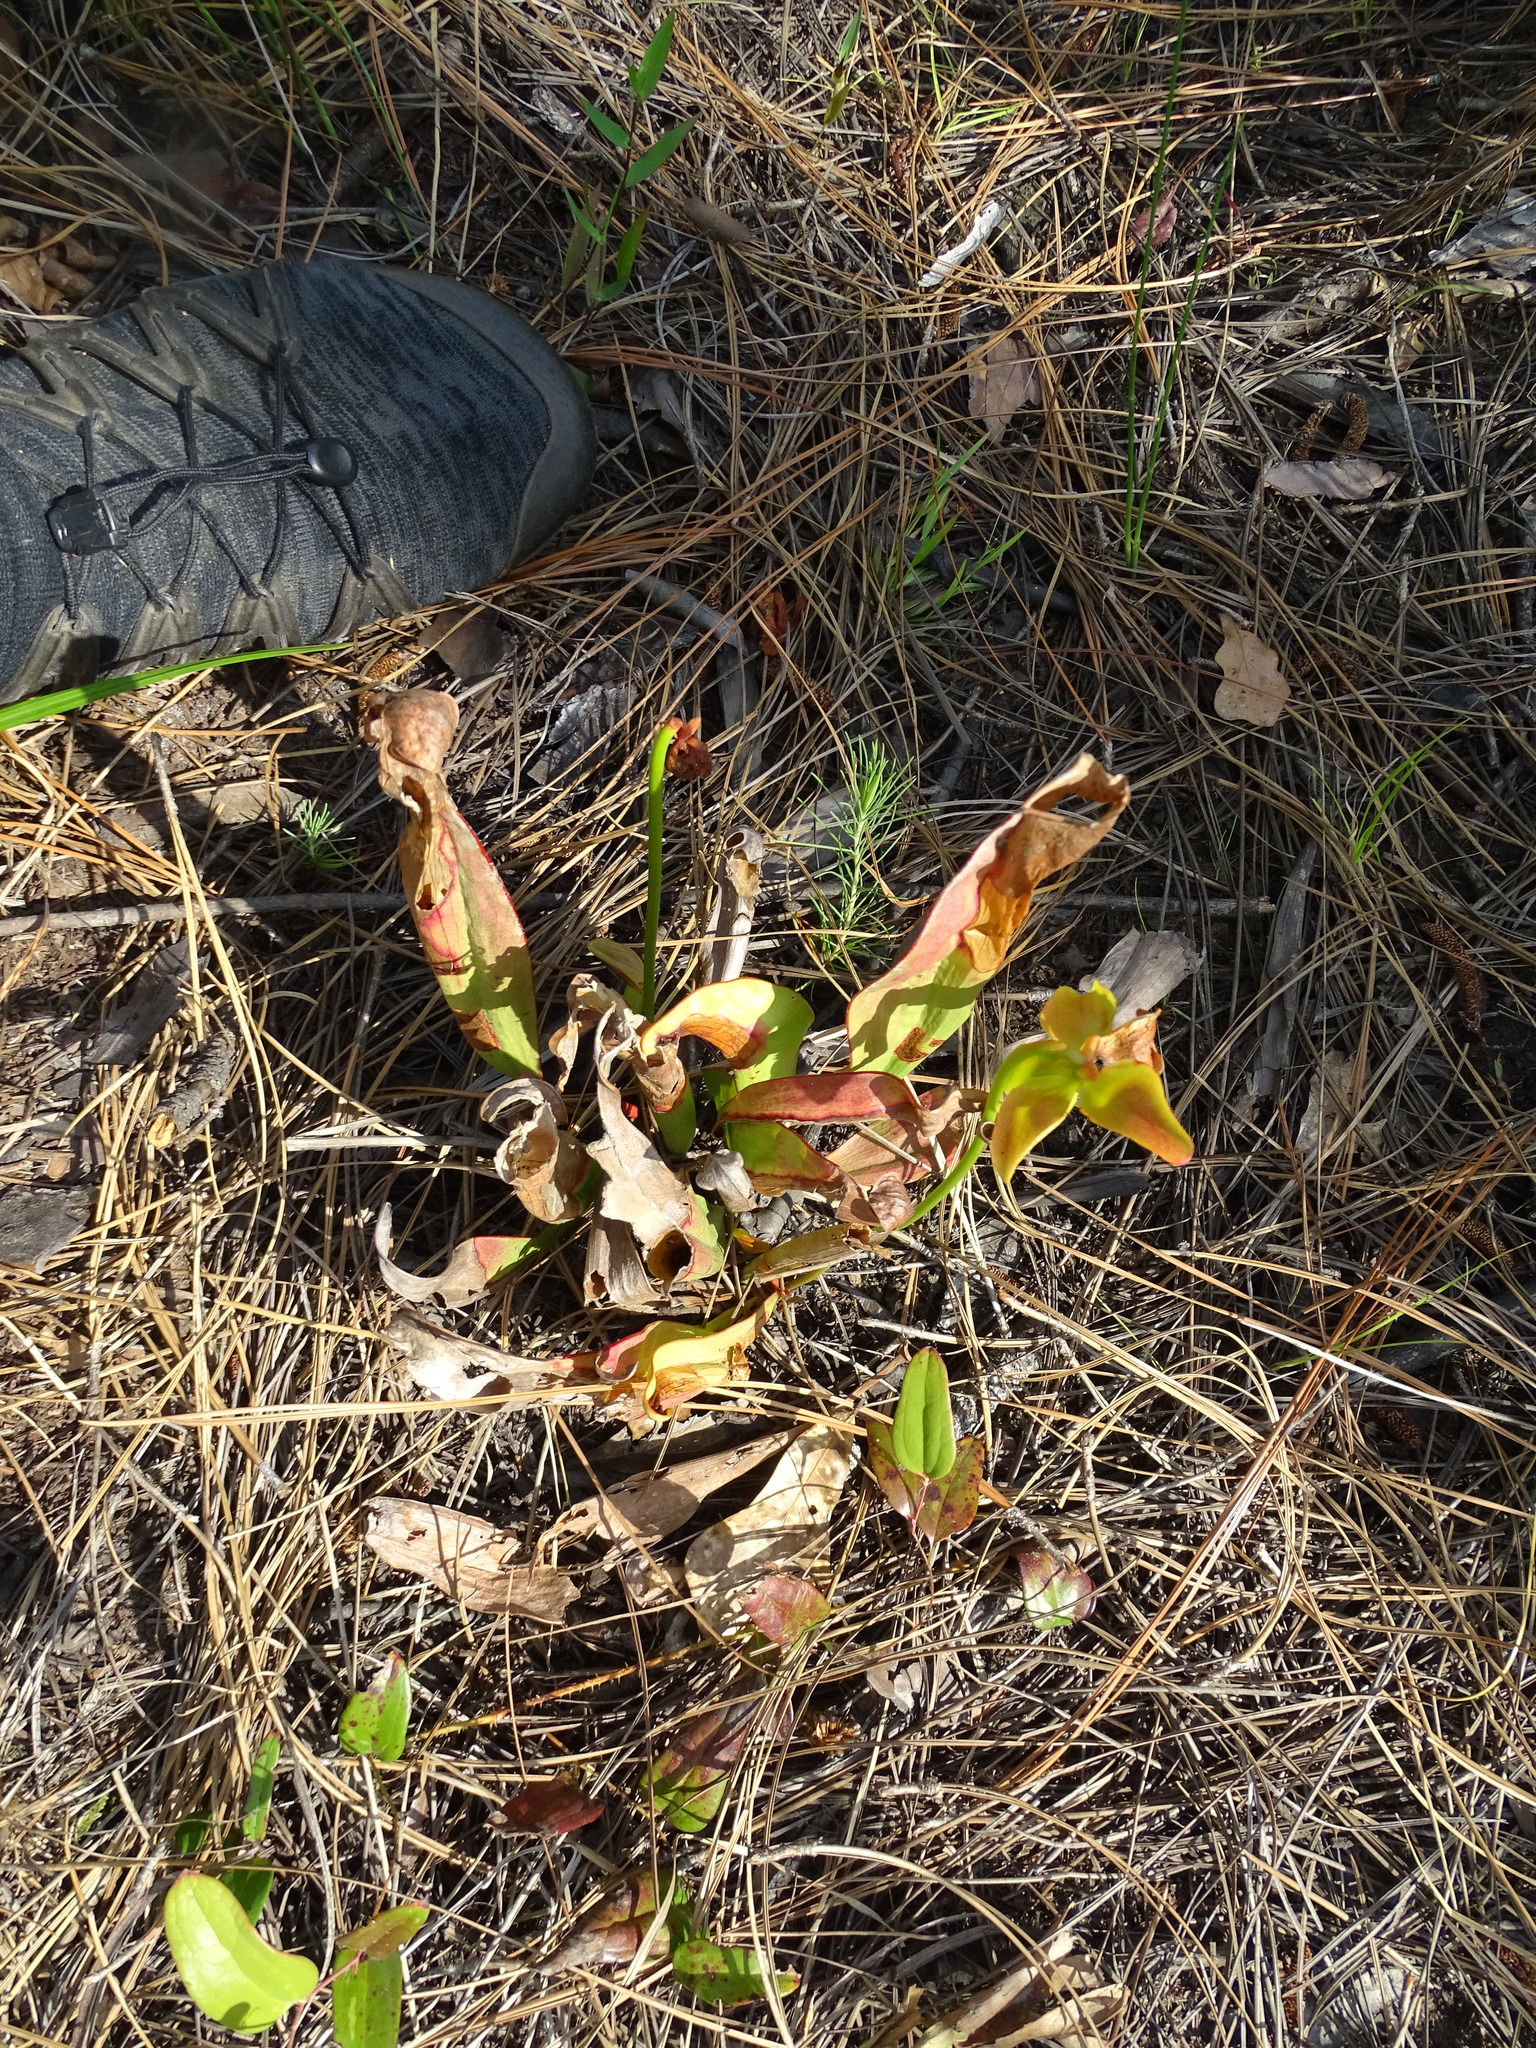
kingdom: Plantae
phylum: Tracheophyta
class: Magnoliopsida
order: Ericales
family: Sarraceniaceae
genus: Sarracenia
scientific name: Sarracenia minor
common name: Rainhat-trumpet
